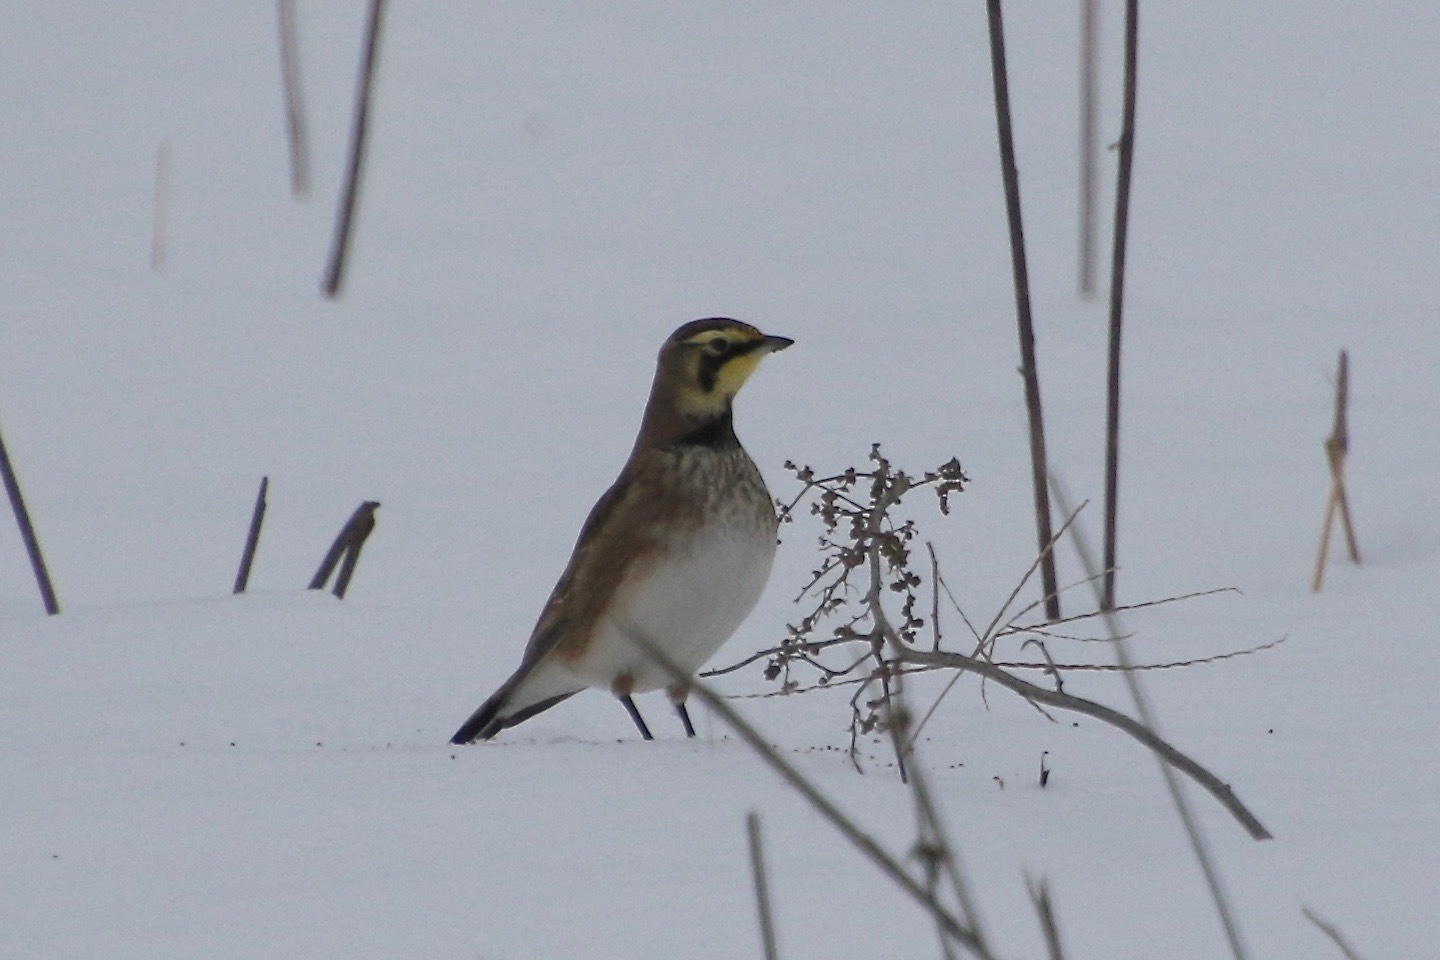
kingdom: Animalia
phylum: Chordata
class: Aves
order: Passeriformes
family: Alaudidae
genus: Eremophila
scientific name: Eremophila alpestris
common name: Horned lark
